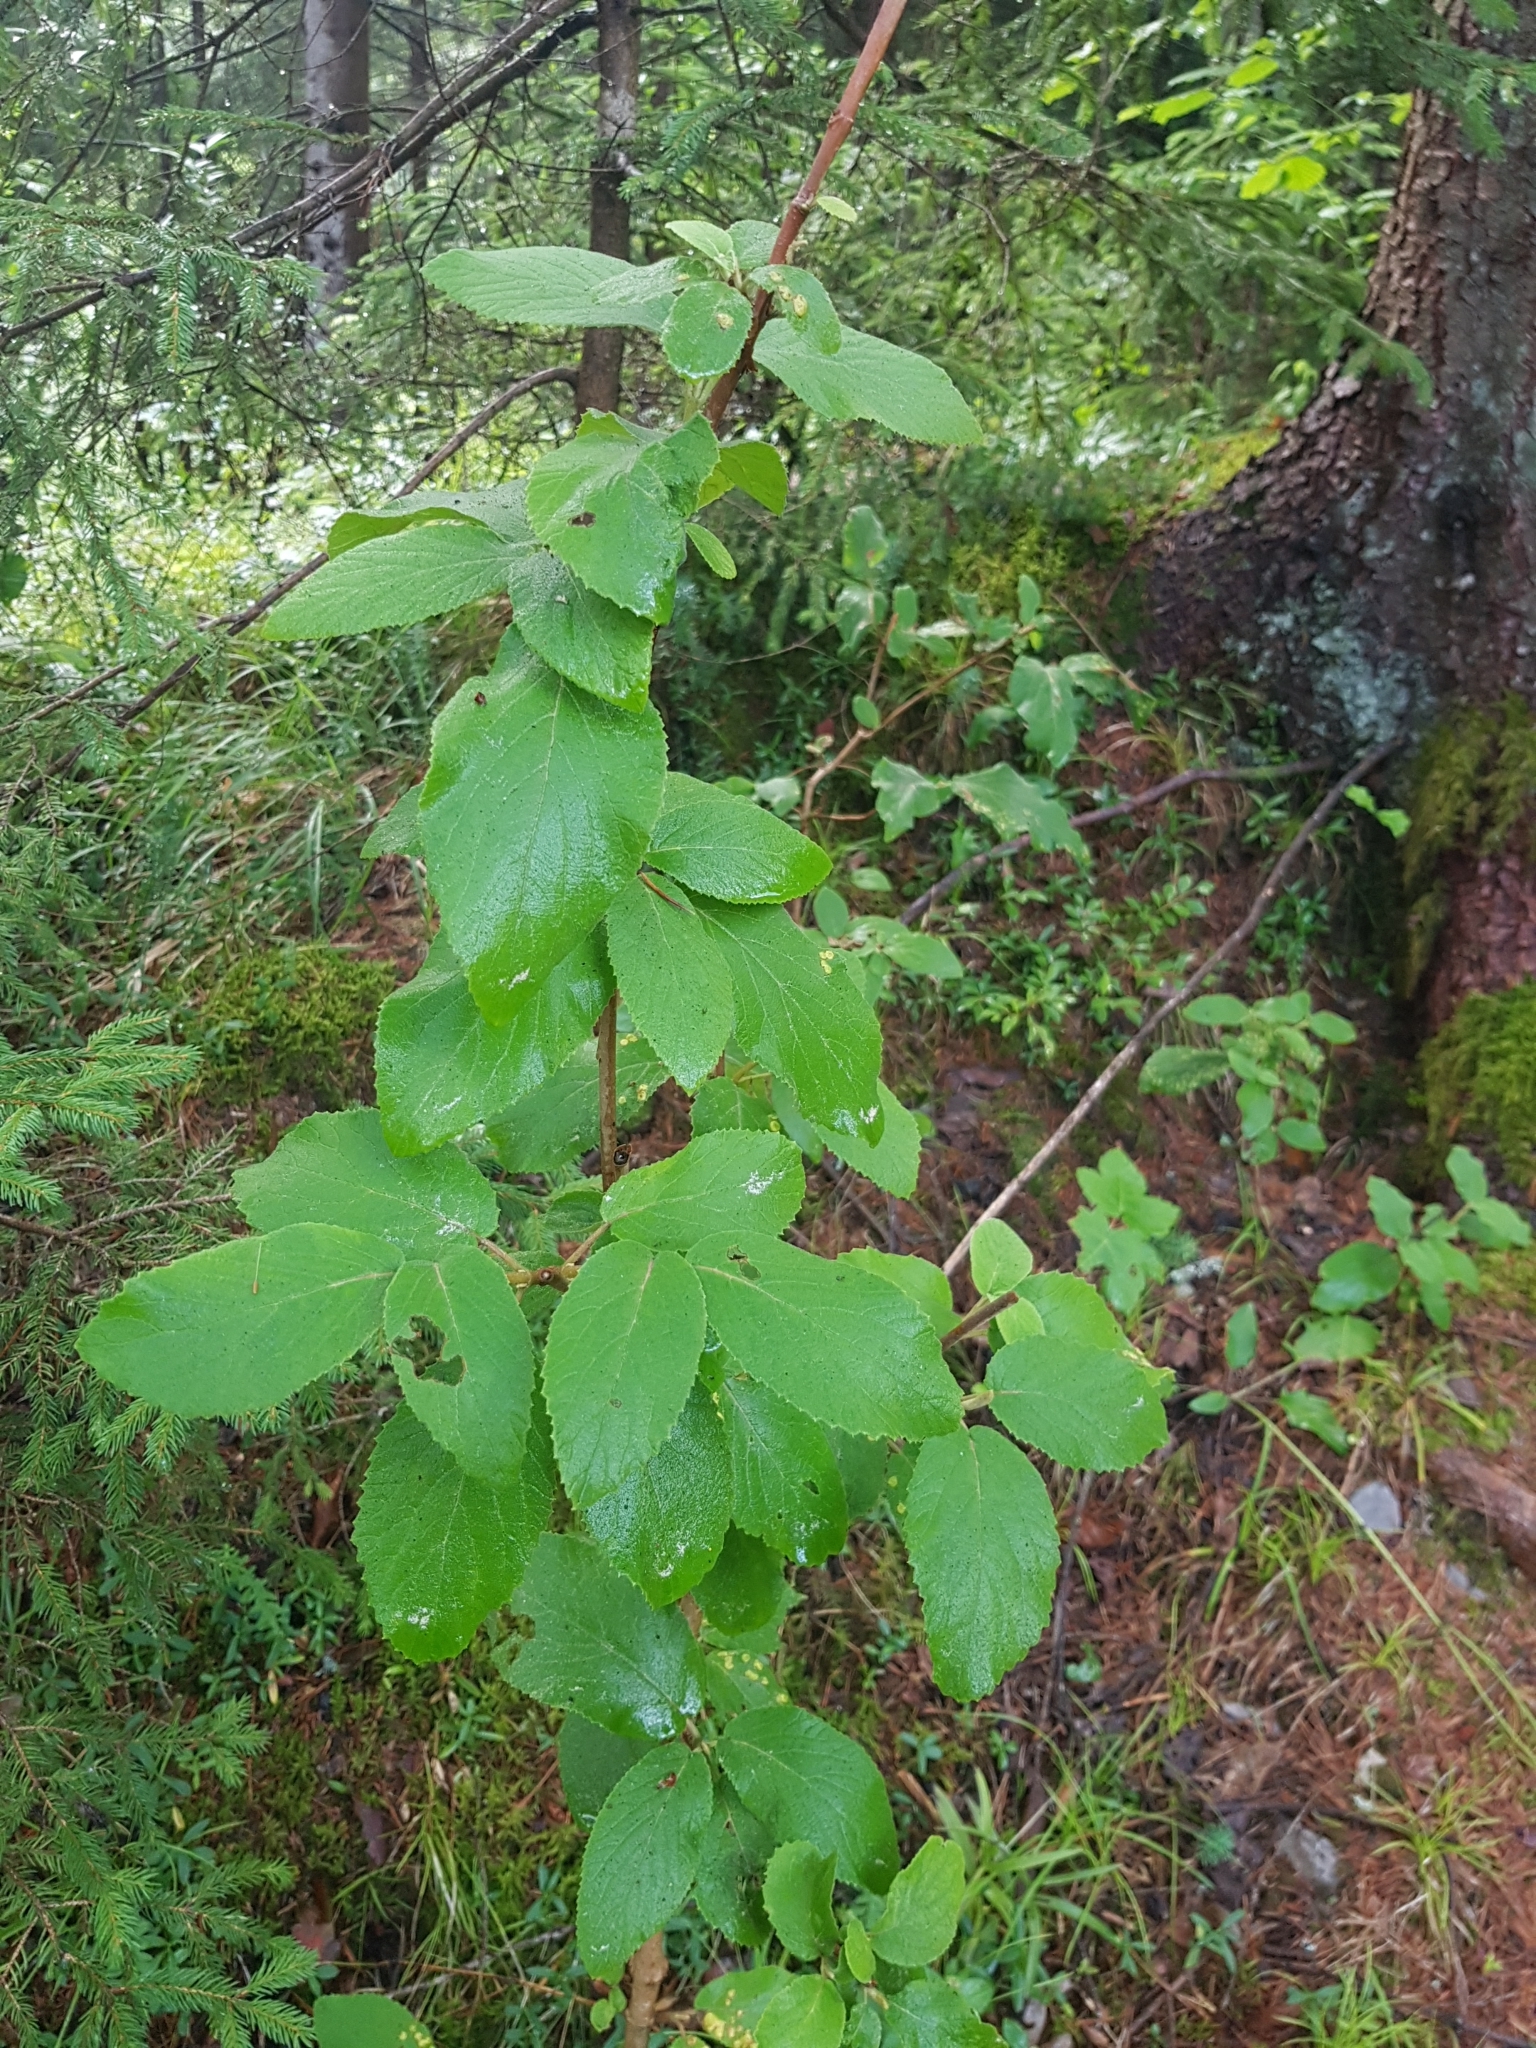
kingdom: Plantae
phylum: Tracheophyta
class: Magnoliopsida
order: Dipsacales
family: Viburnaceae
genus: Viburnum
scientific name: Viburnum lantana
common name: Wayfaring tree
